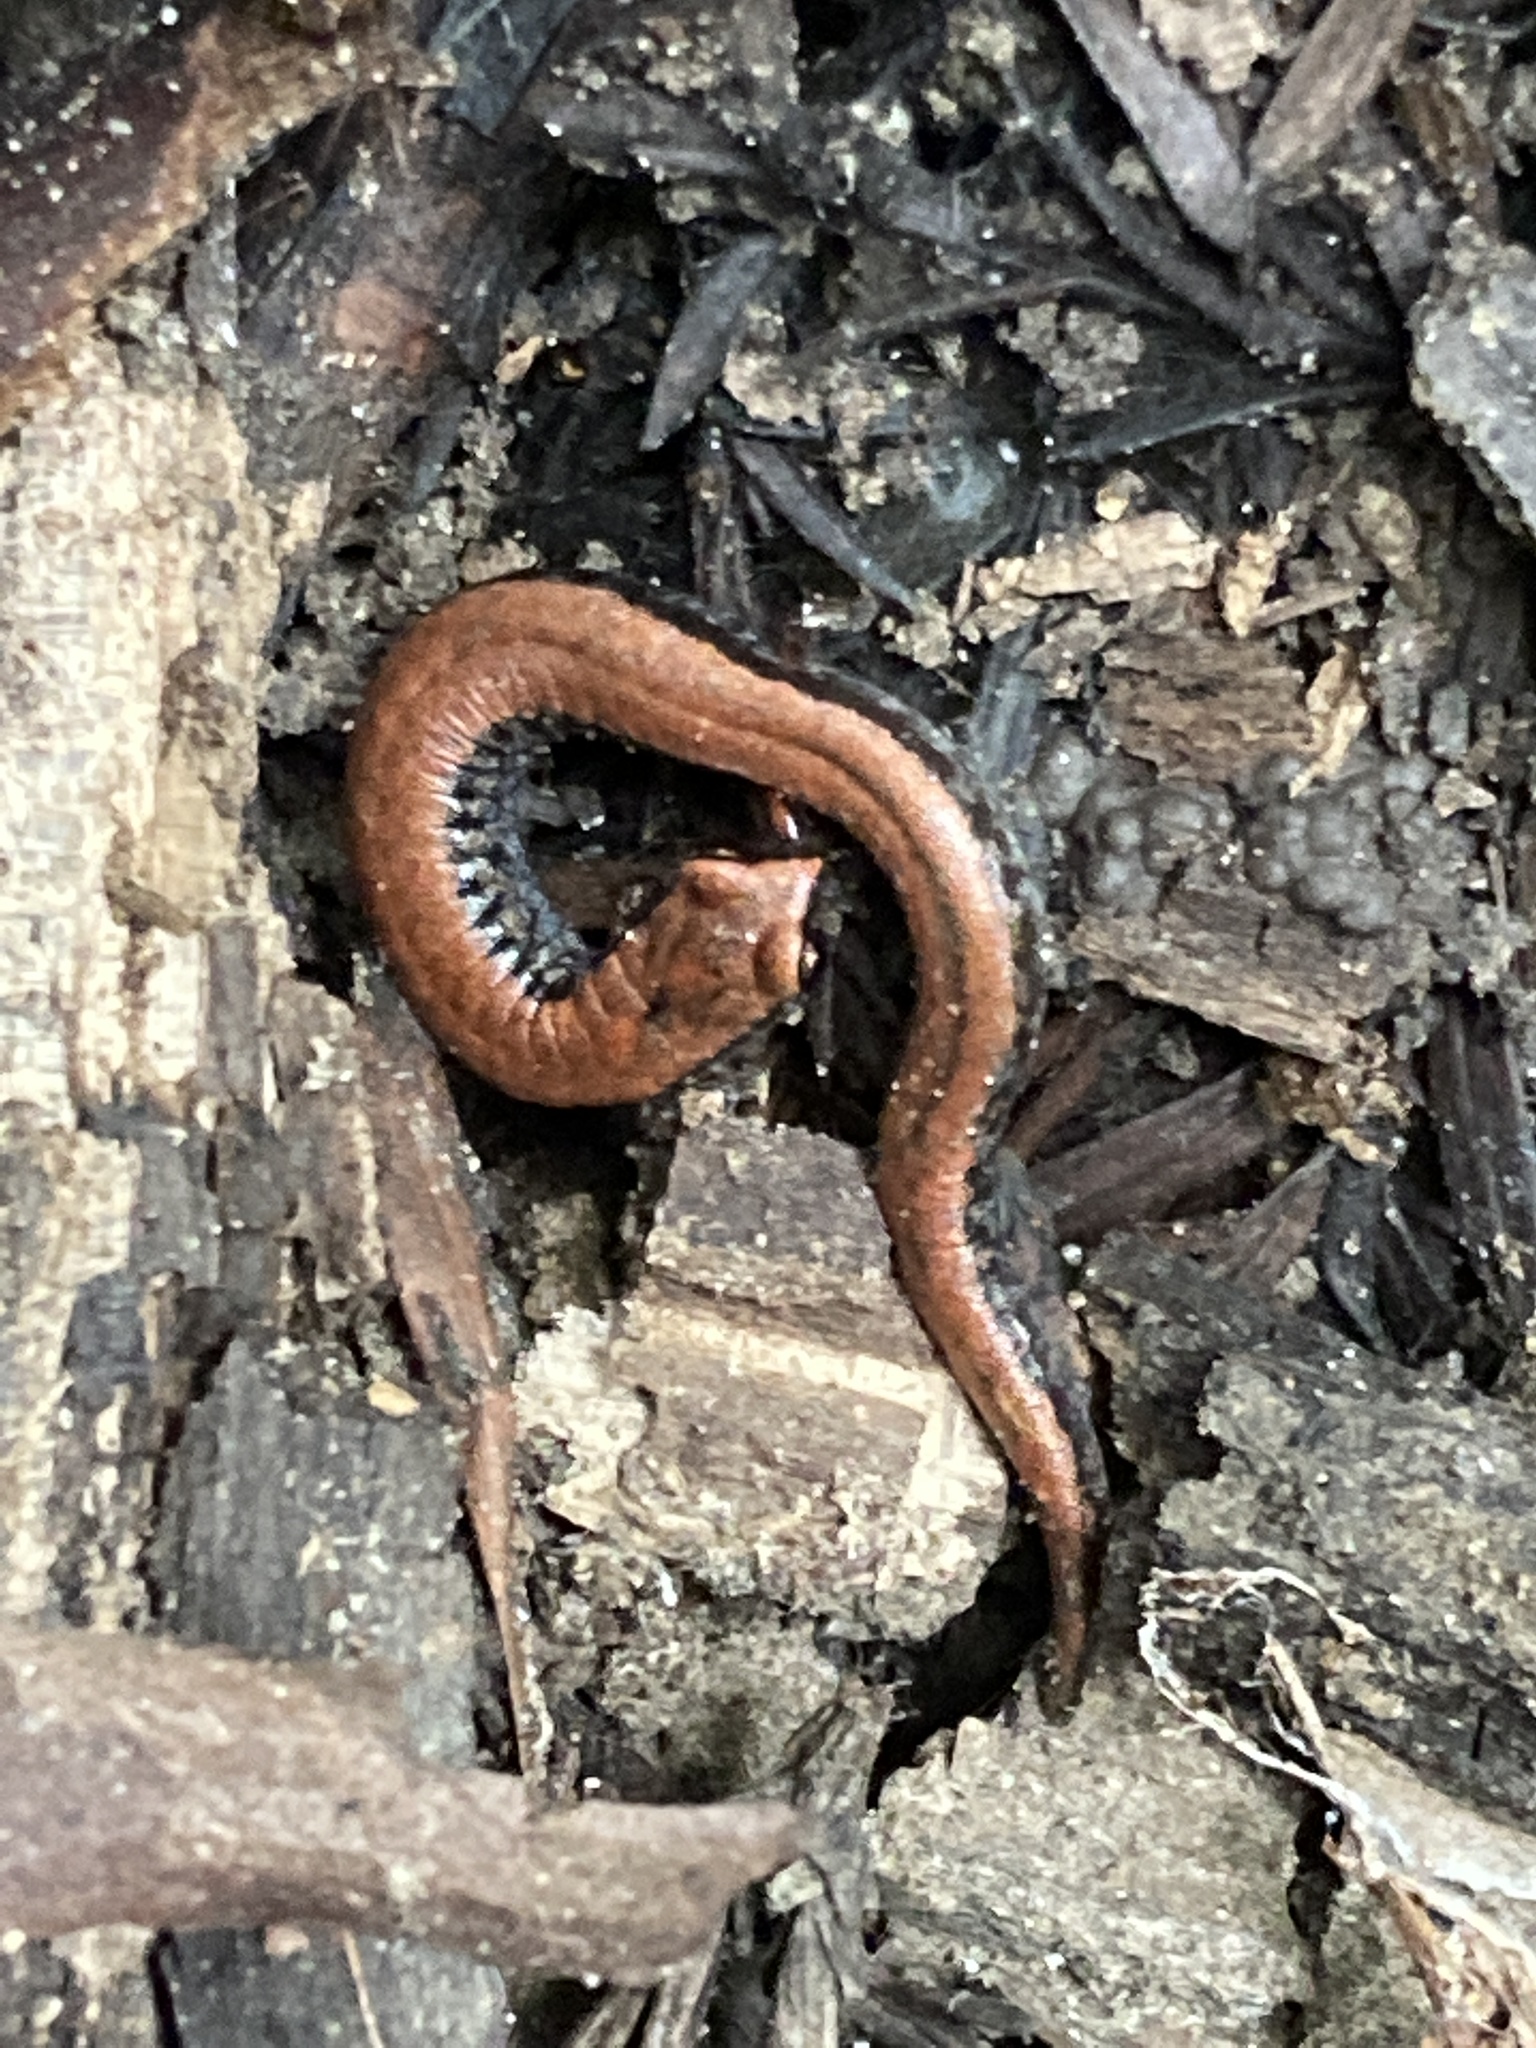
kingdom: Animalia
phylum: Chordata
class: Amphibia
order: Caudata
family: Plethodontidae
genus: Batrachoseps
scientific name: Batrachoseps attenuatus
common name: California slender salamander
